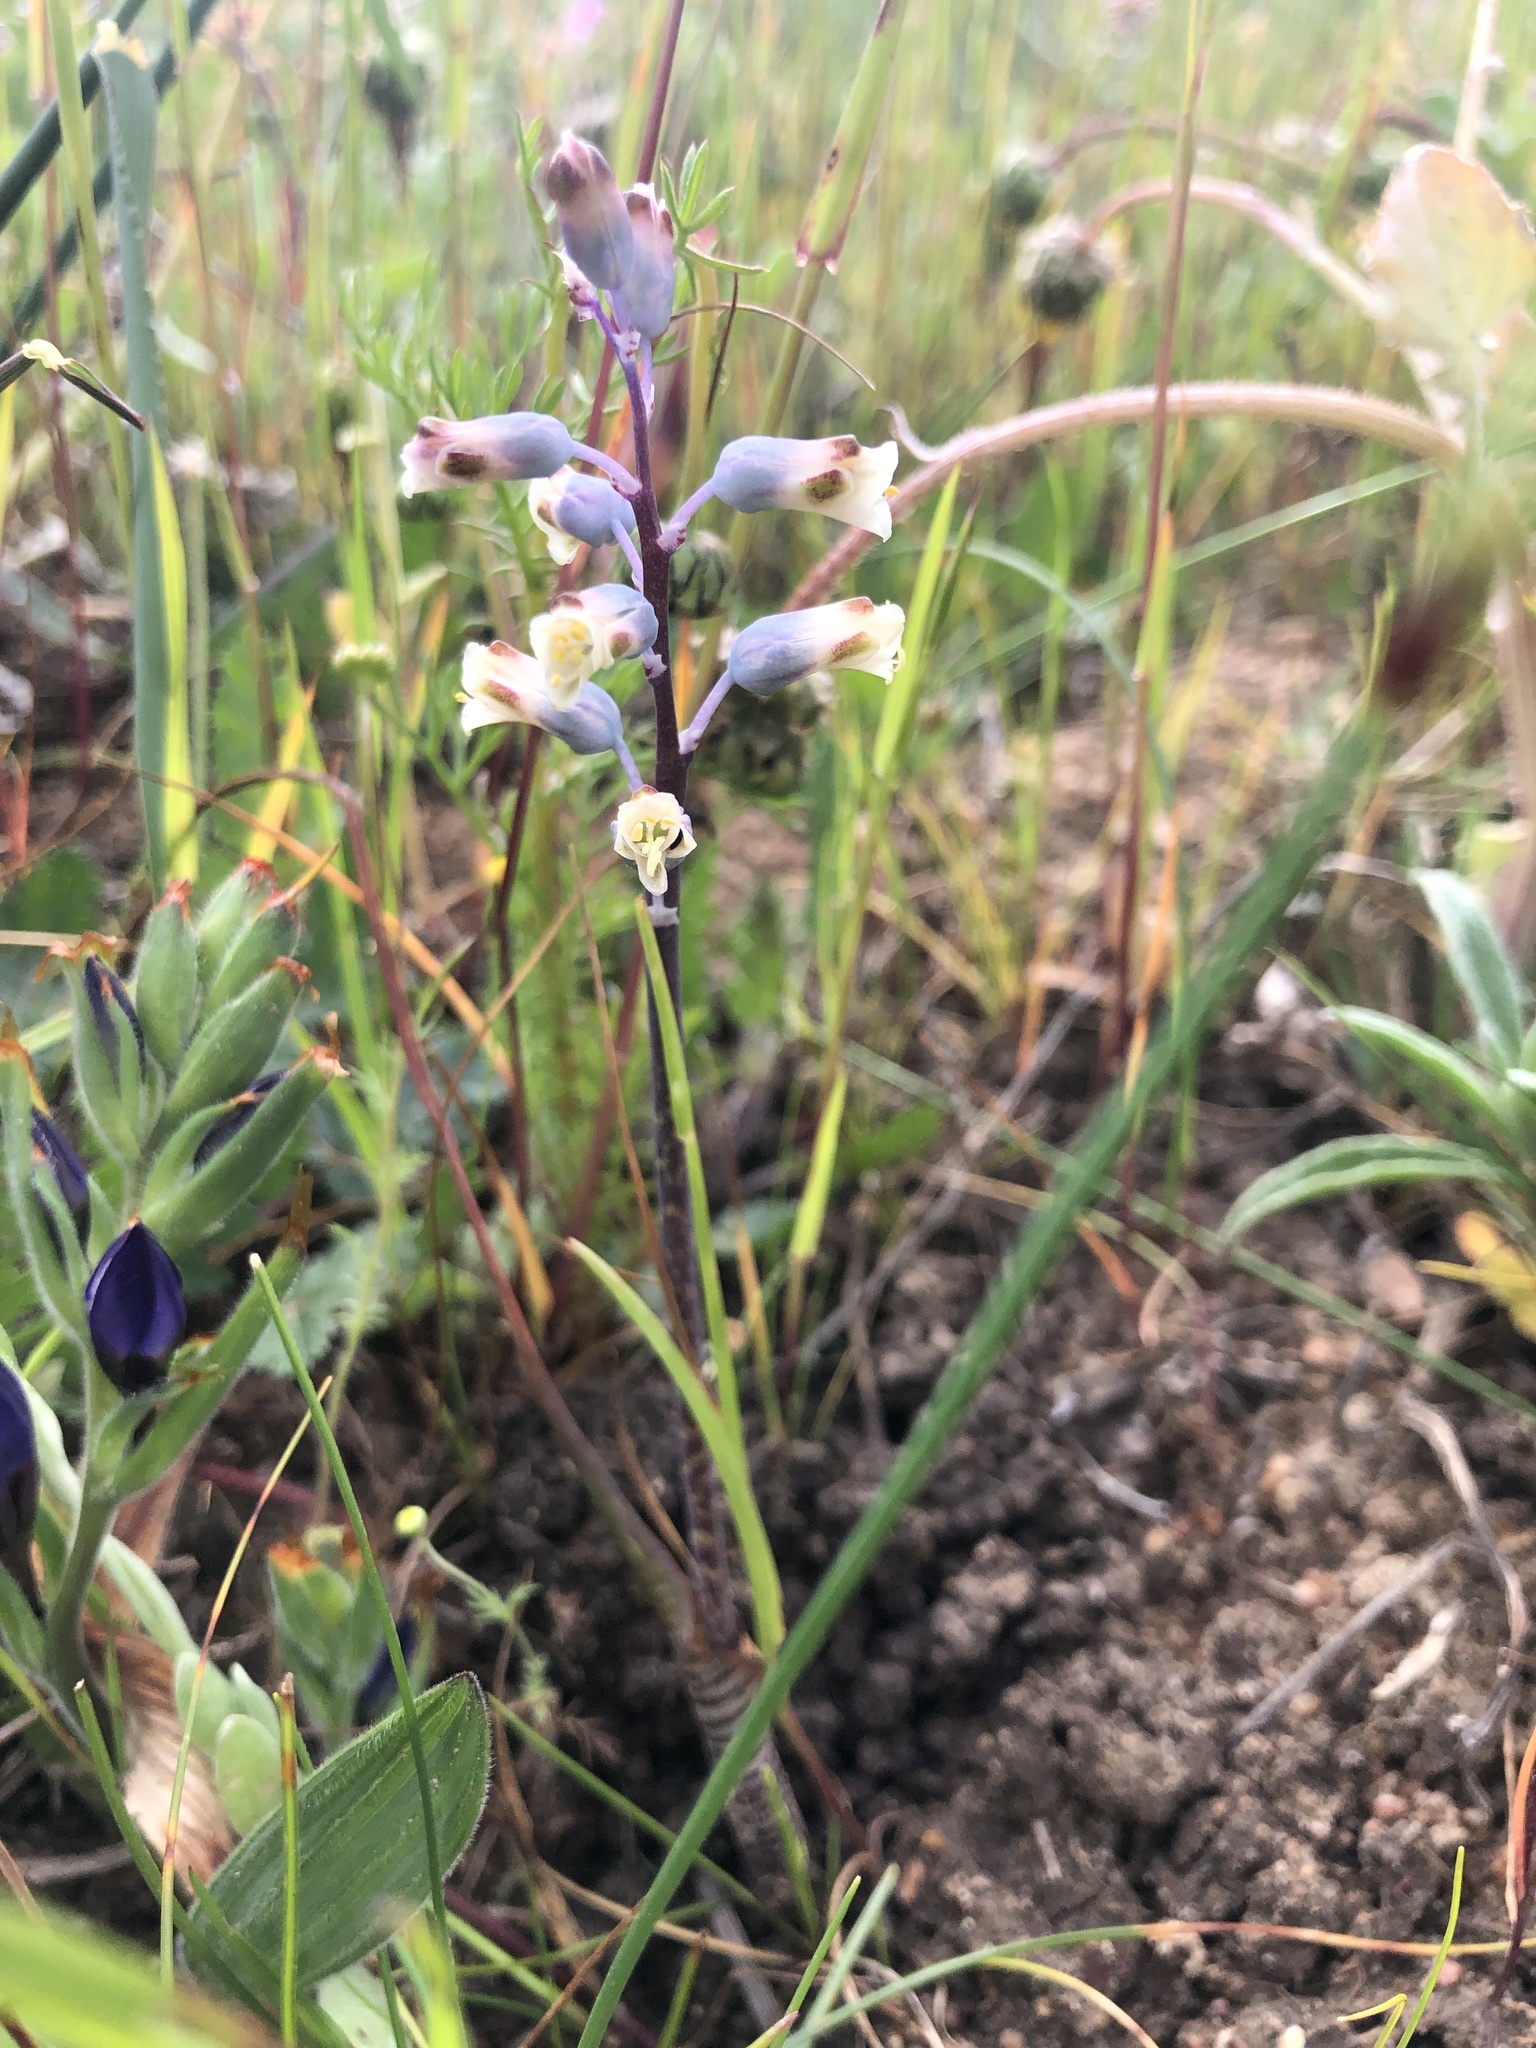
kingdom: Plantae
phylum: Tracheophyta
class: Liliopsida
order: Asparagales
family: Asparagaceae
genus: Lachenalia
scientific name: Lachenalia unifolia
